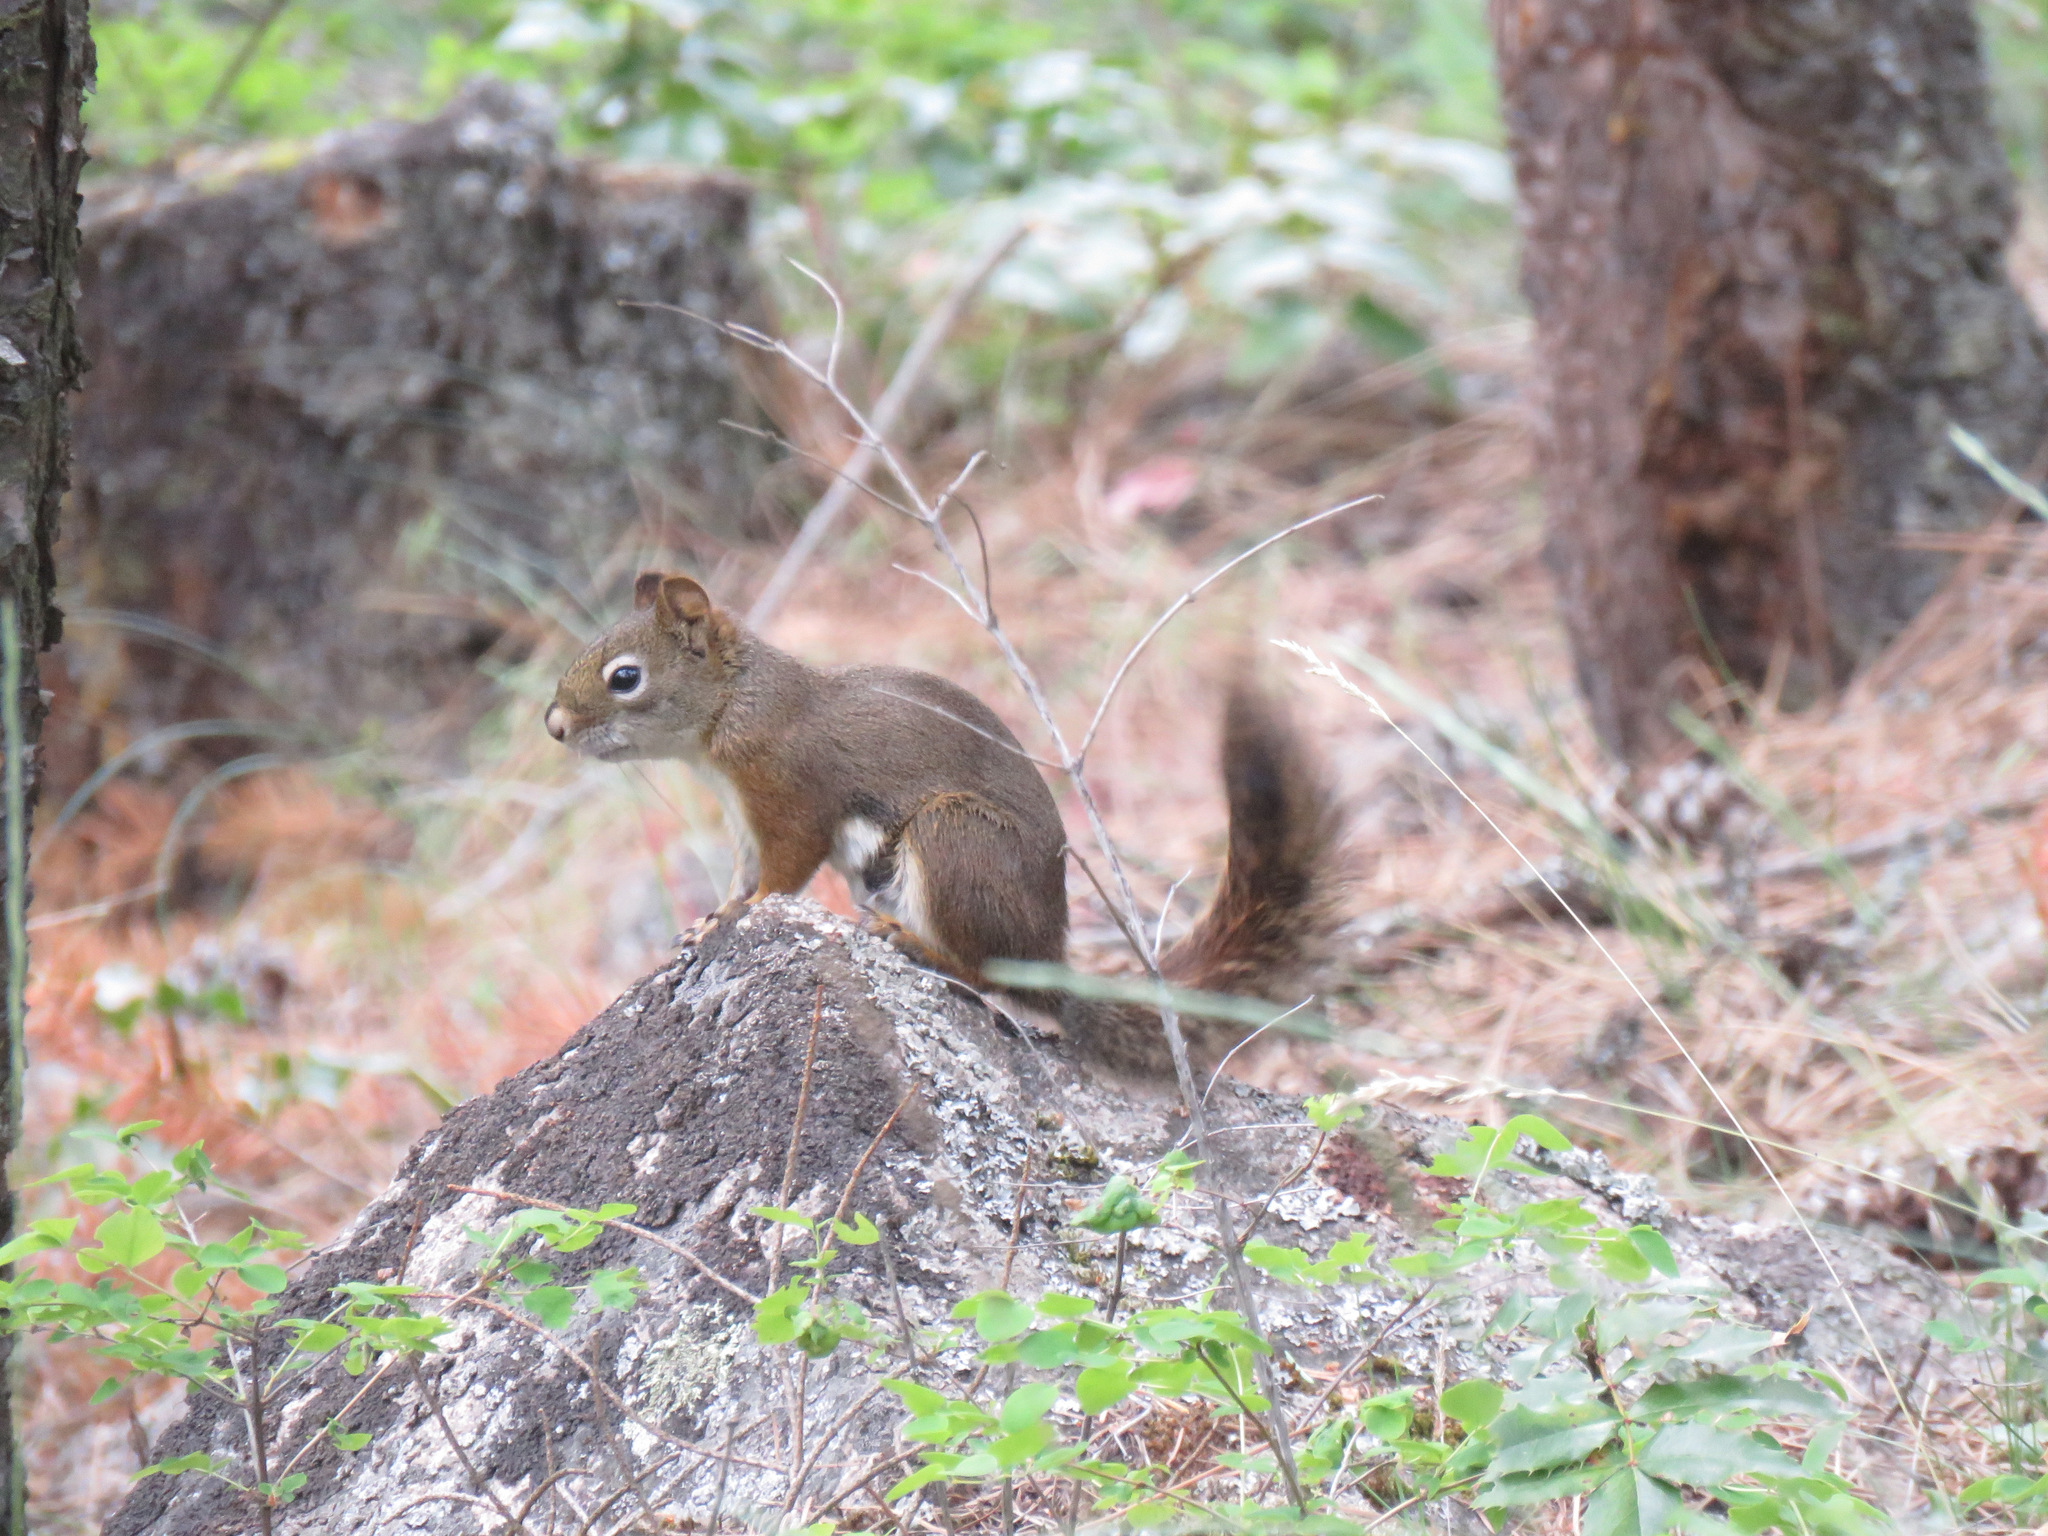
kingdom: Animalia
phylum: Chordata
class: Mammalia
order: Rodentia
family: Sciuridae
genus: Tamiasciurus
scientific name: Tamiasciurus hudsonicus
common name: Red squirrel
